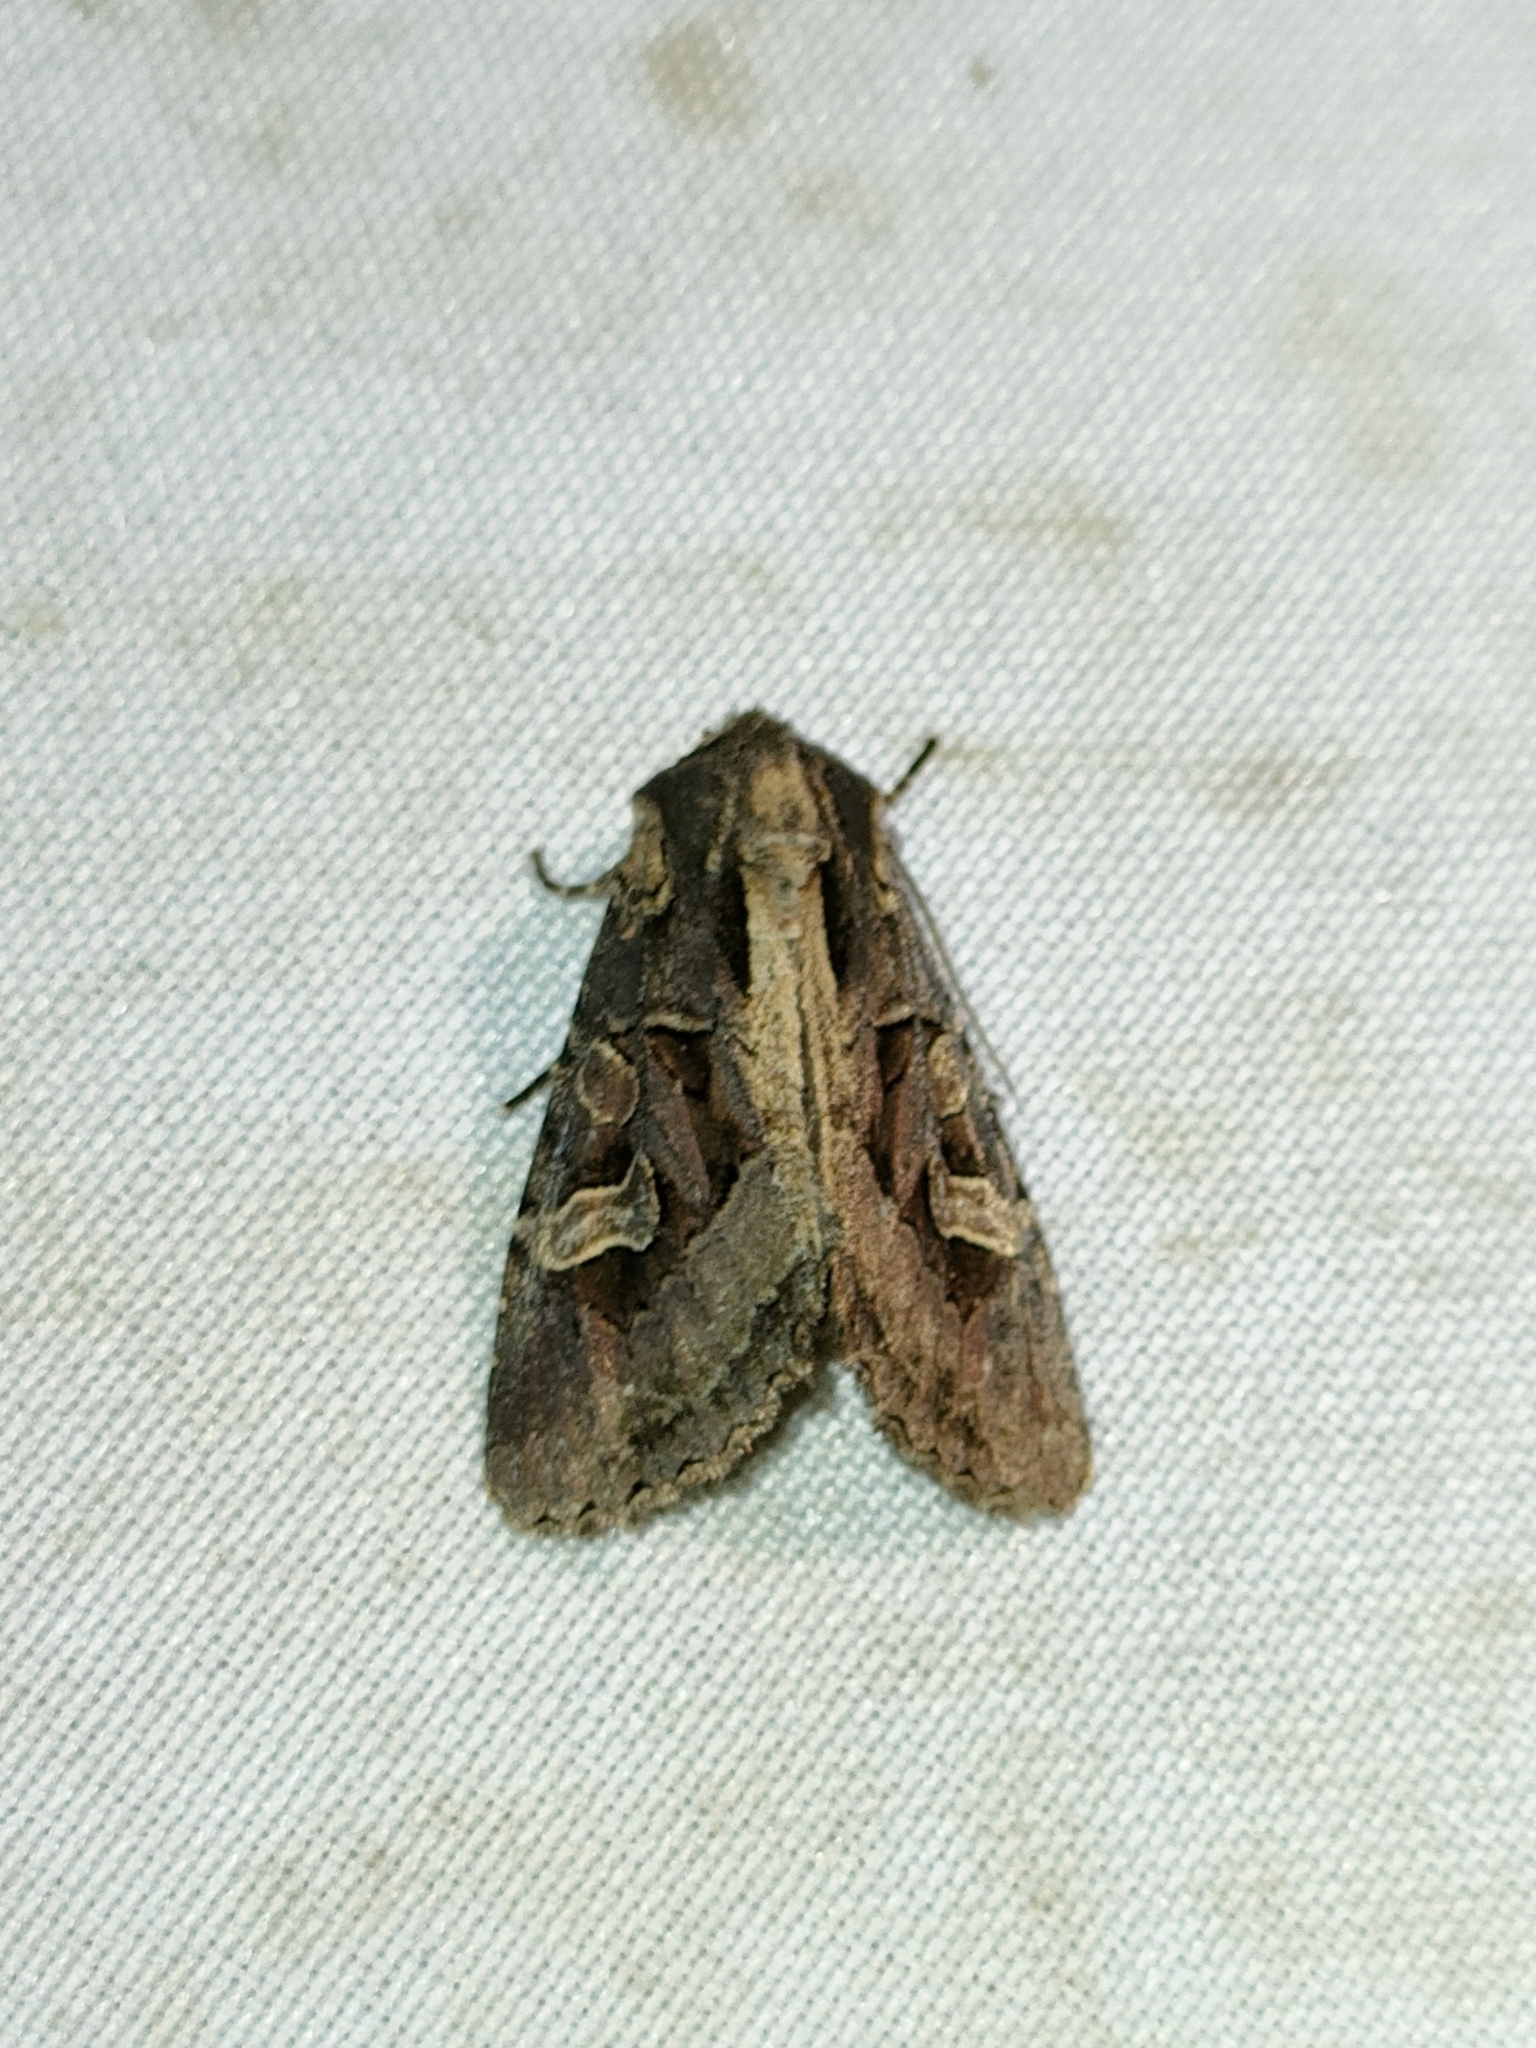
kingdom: Animalia
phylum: Arthropoda
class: Insecta
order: Lepidoptera
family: Noctuidae
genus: Trigonophora
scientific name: Trigonophora jodea
